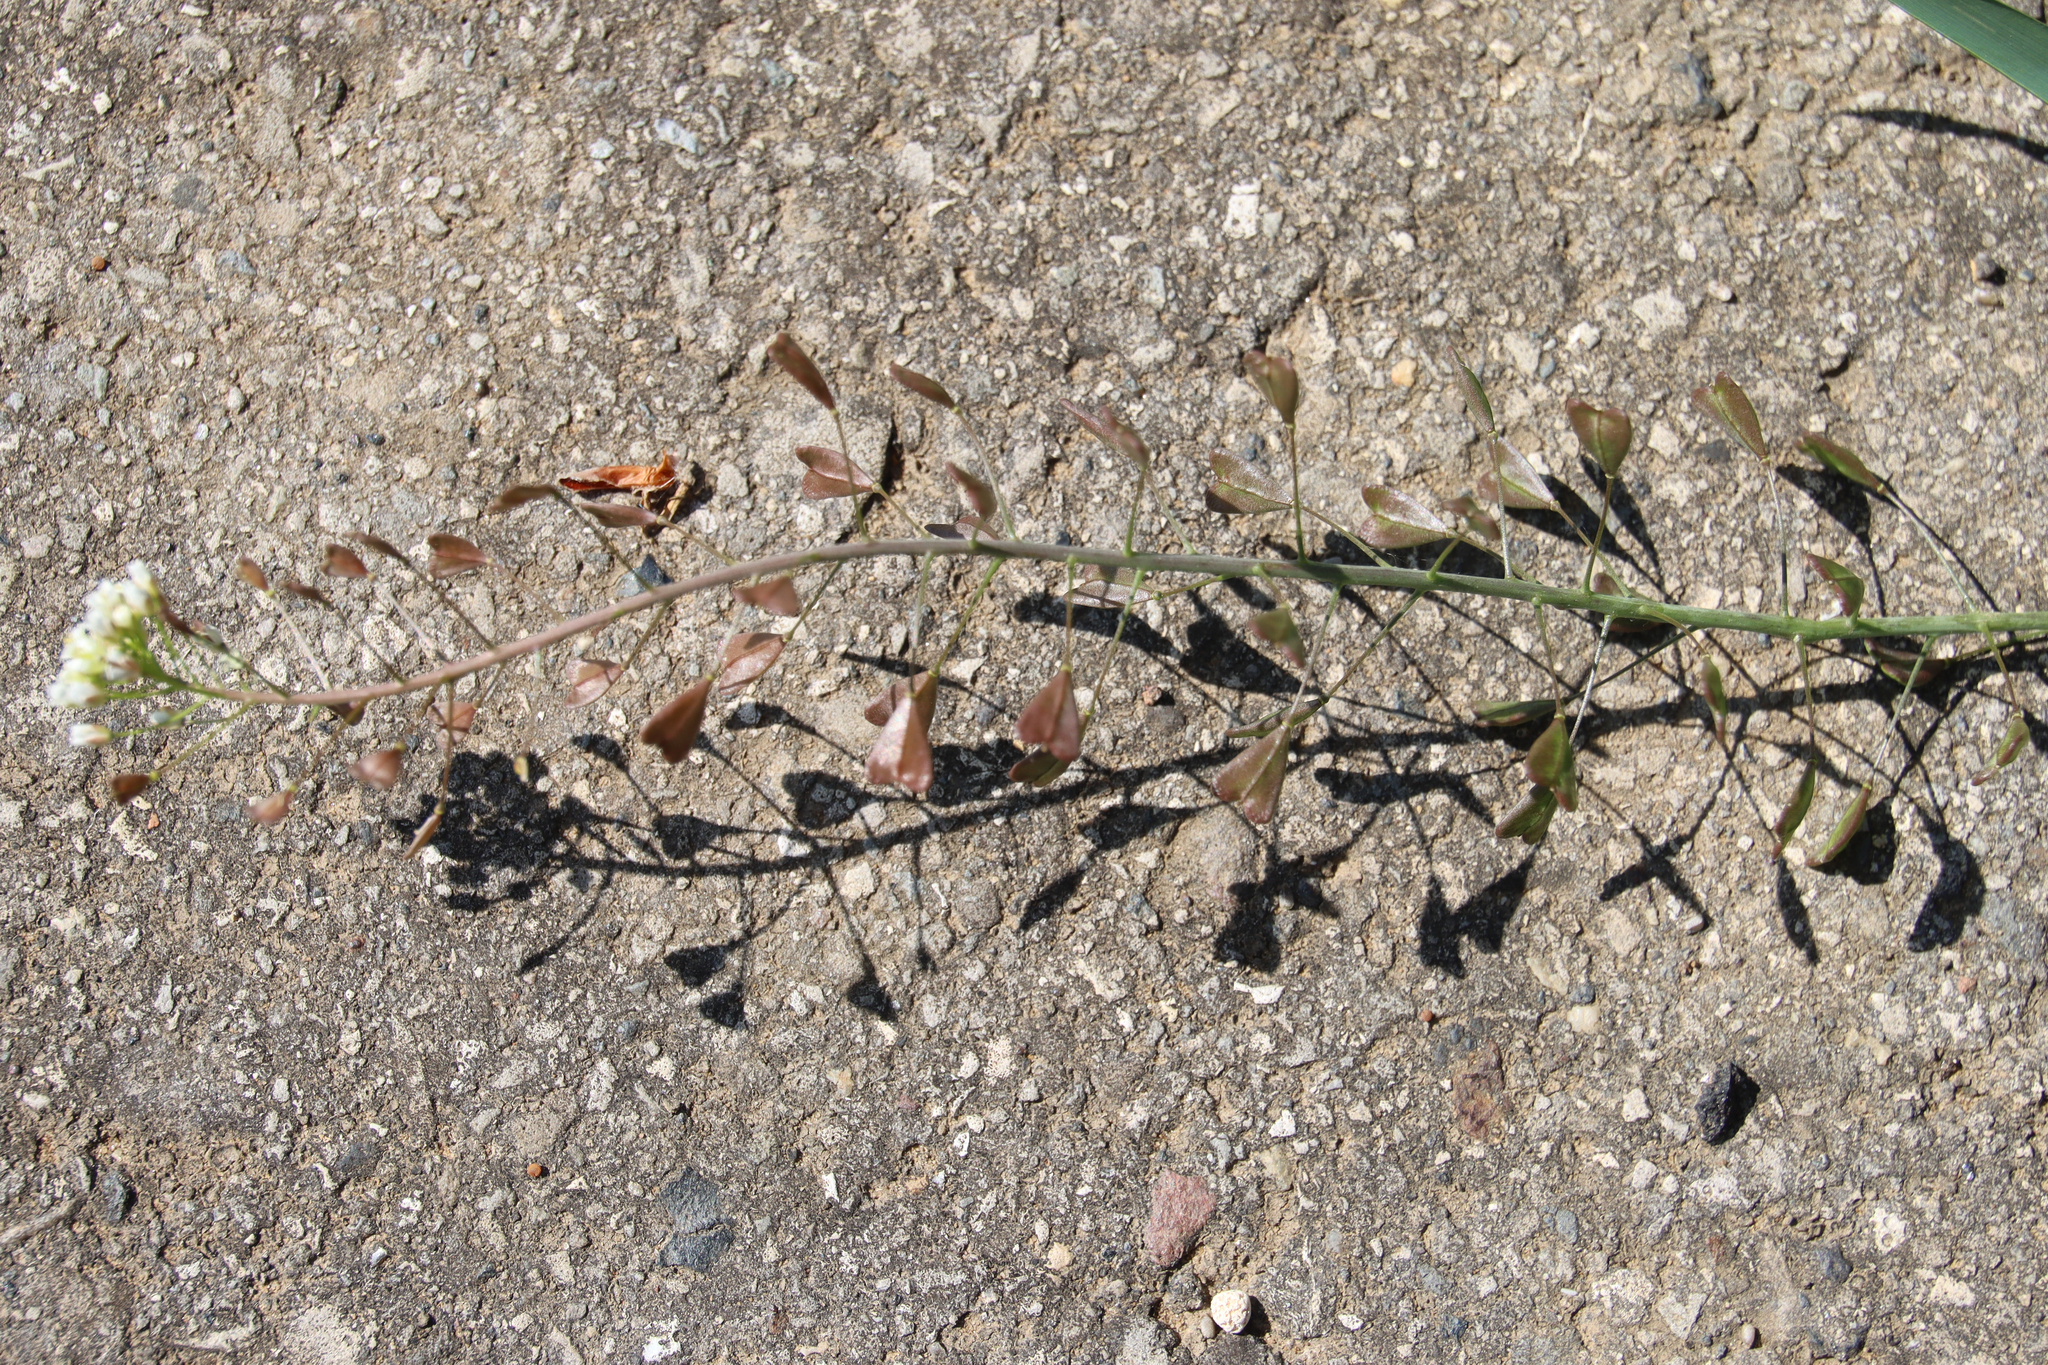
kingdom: Plantae
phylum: Tracheophyta
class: Magnoliopsida
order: Brassicales
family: Brassicaceae
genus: Capsella
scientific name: Capsella bursa-pastoris
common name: Shepherd's purse
